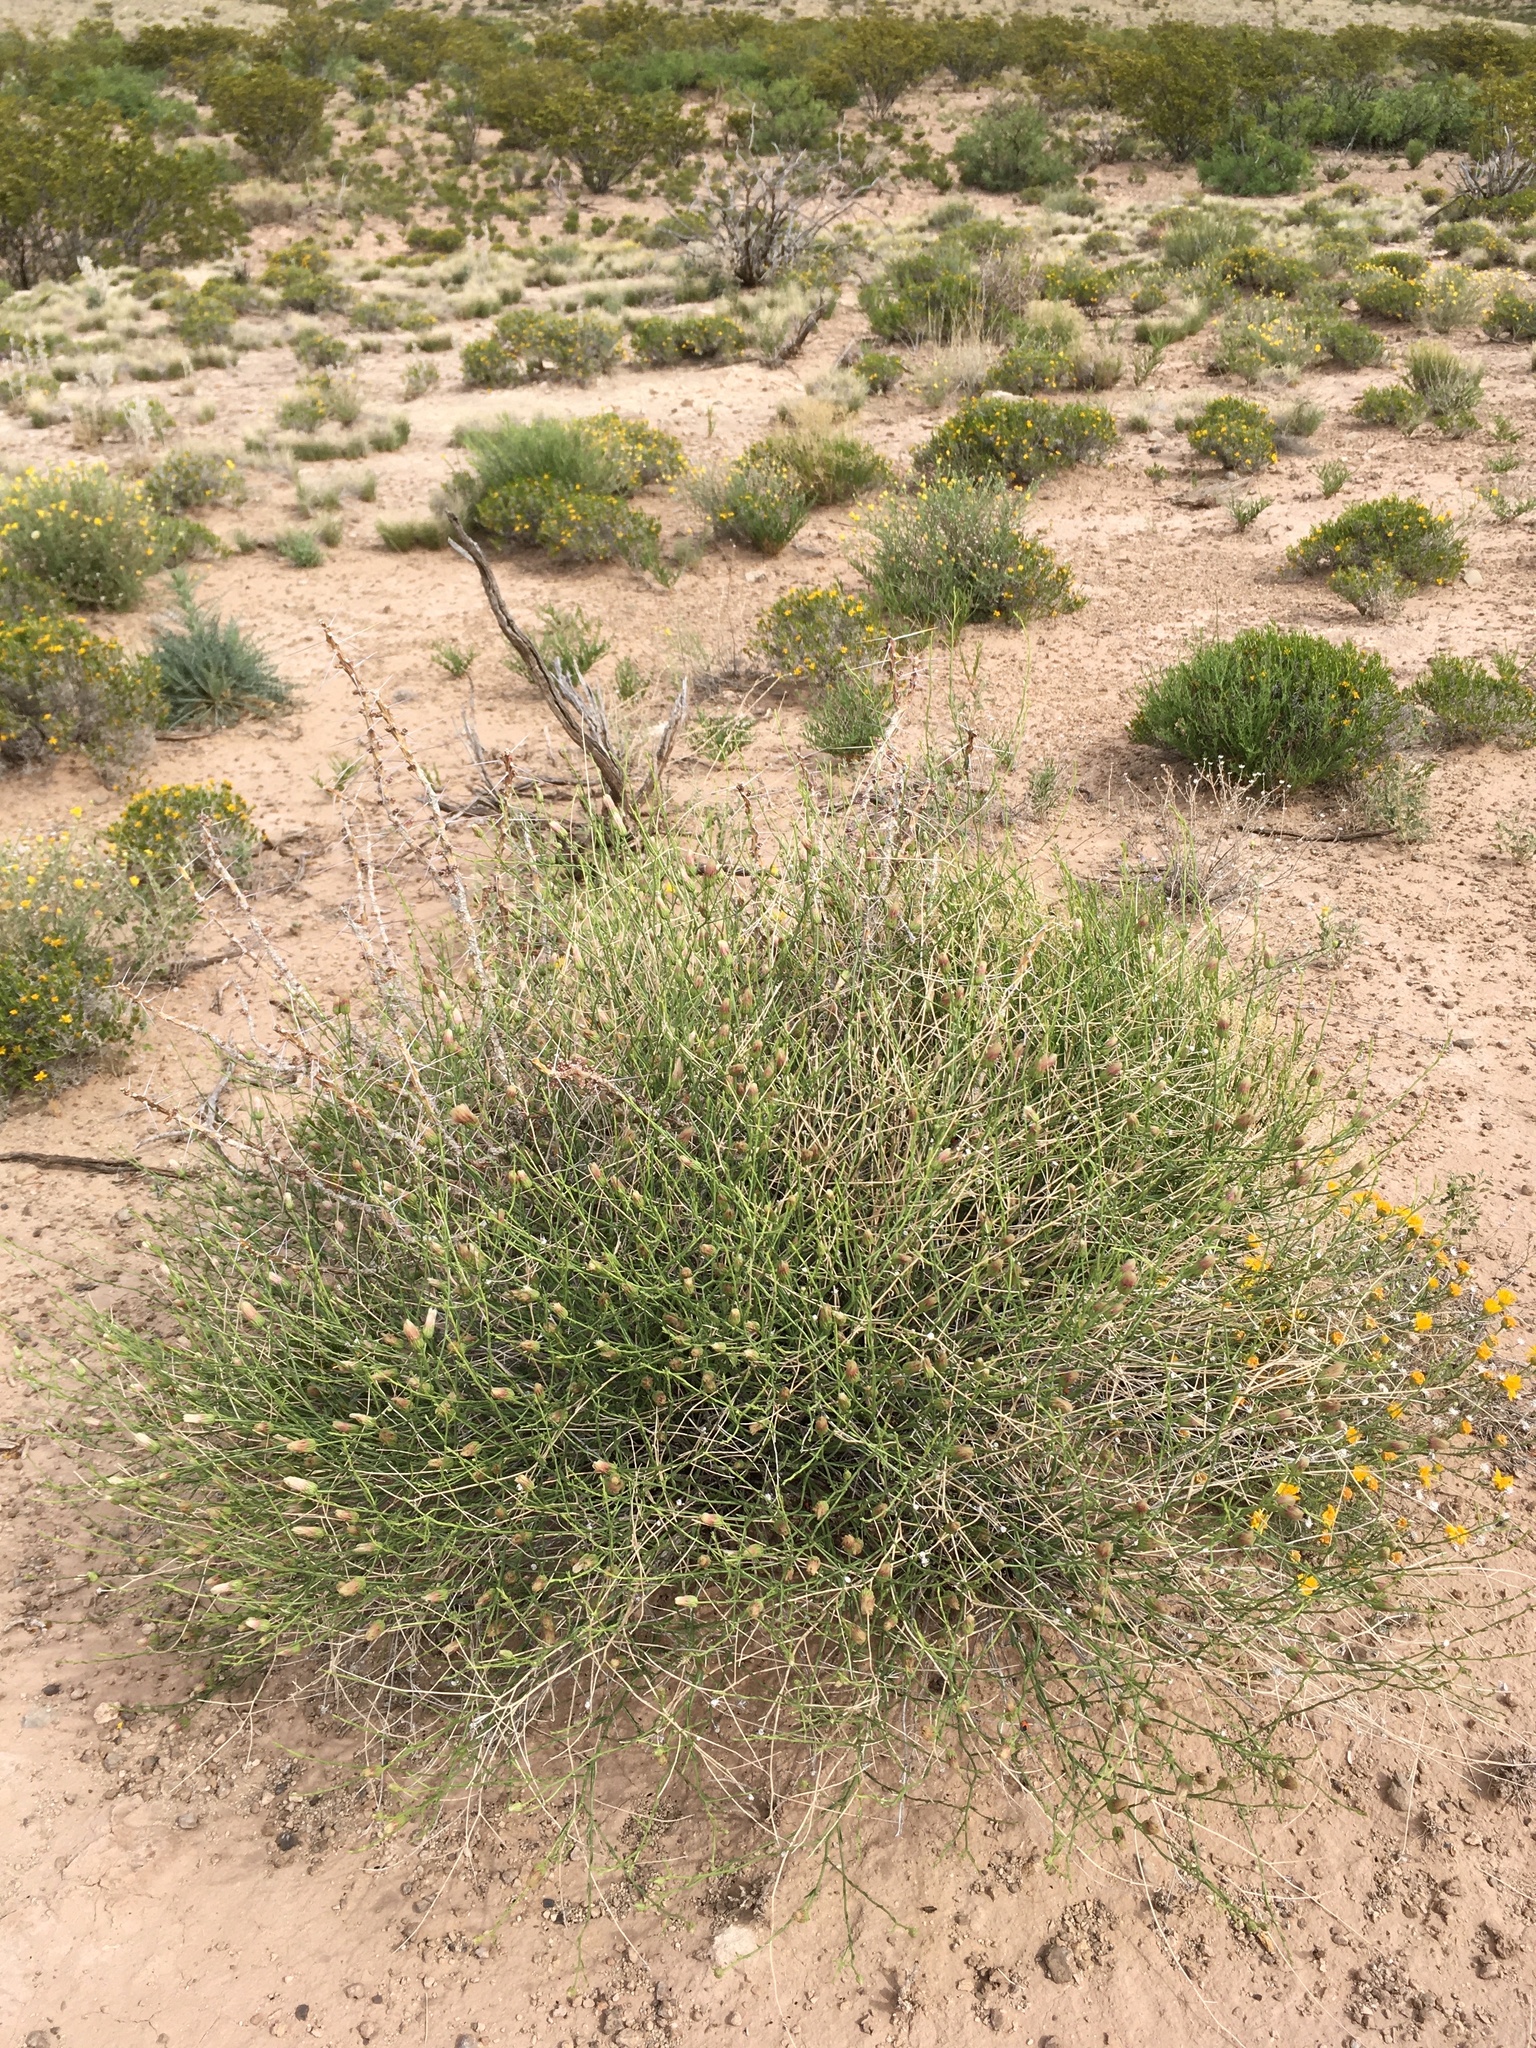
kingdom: Plantae
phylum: Tracheophyta
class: Magnoliopsida
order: Asterales
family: Asteraceae
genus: Baccharis
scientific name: Baccharis wrightii
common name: Wright's baccharis
